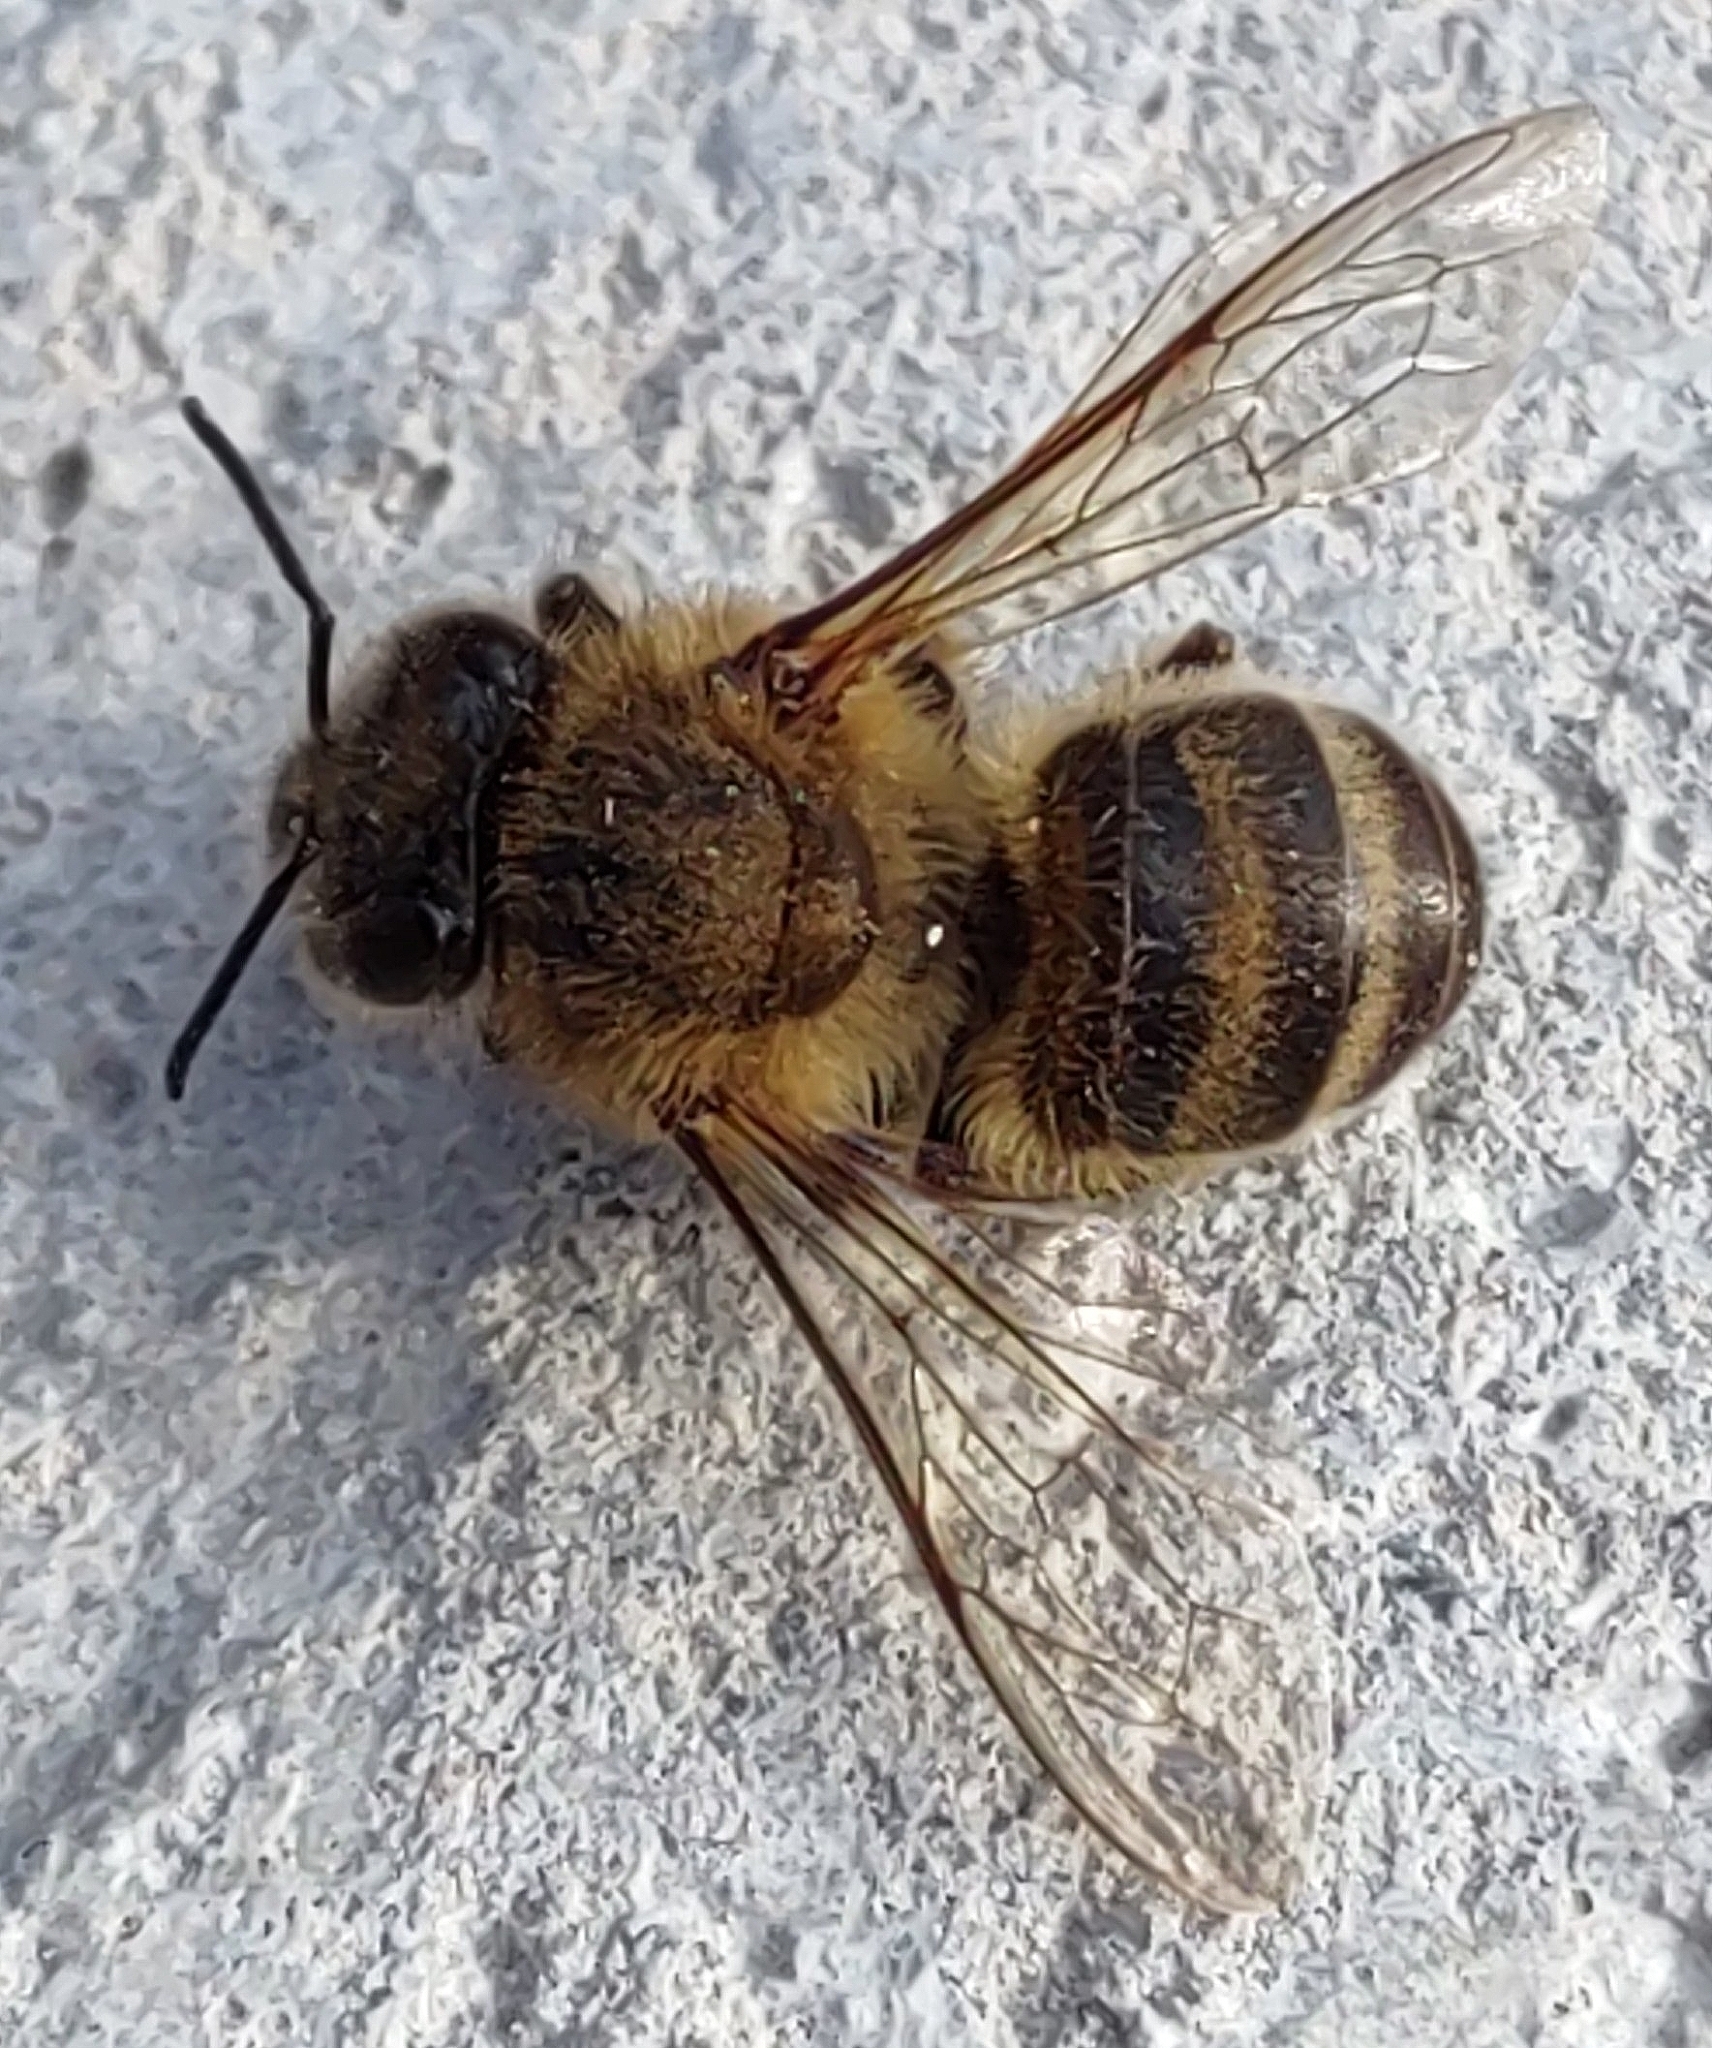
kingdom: Animalia
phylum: Arthropoda
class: Insecta
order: Hymenoptera
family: Apidae
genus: Apis
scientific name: Apis mellifera
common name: Honey bee
